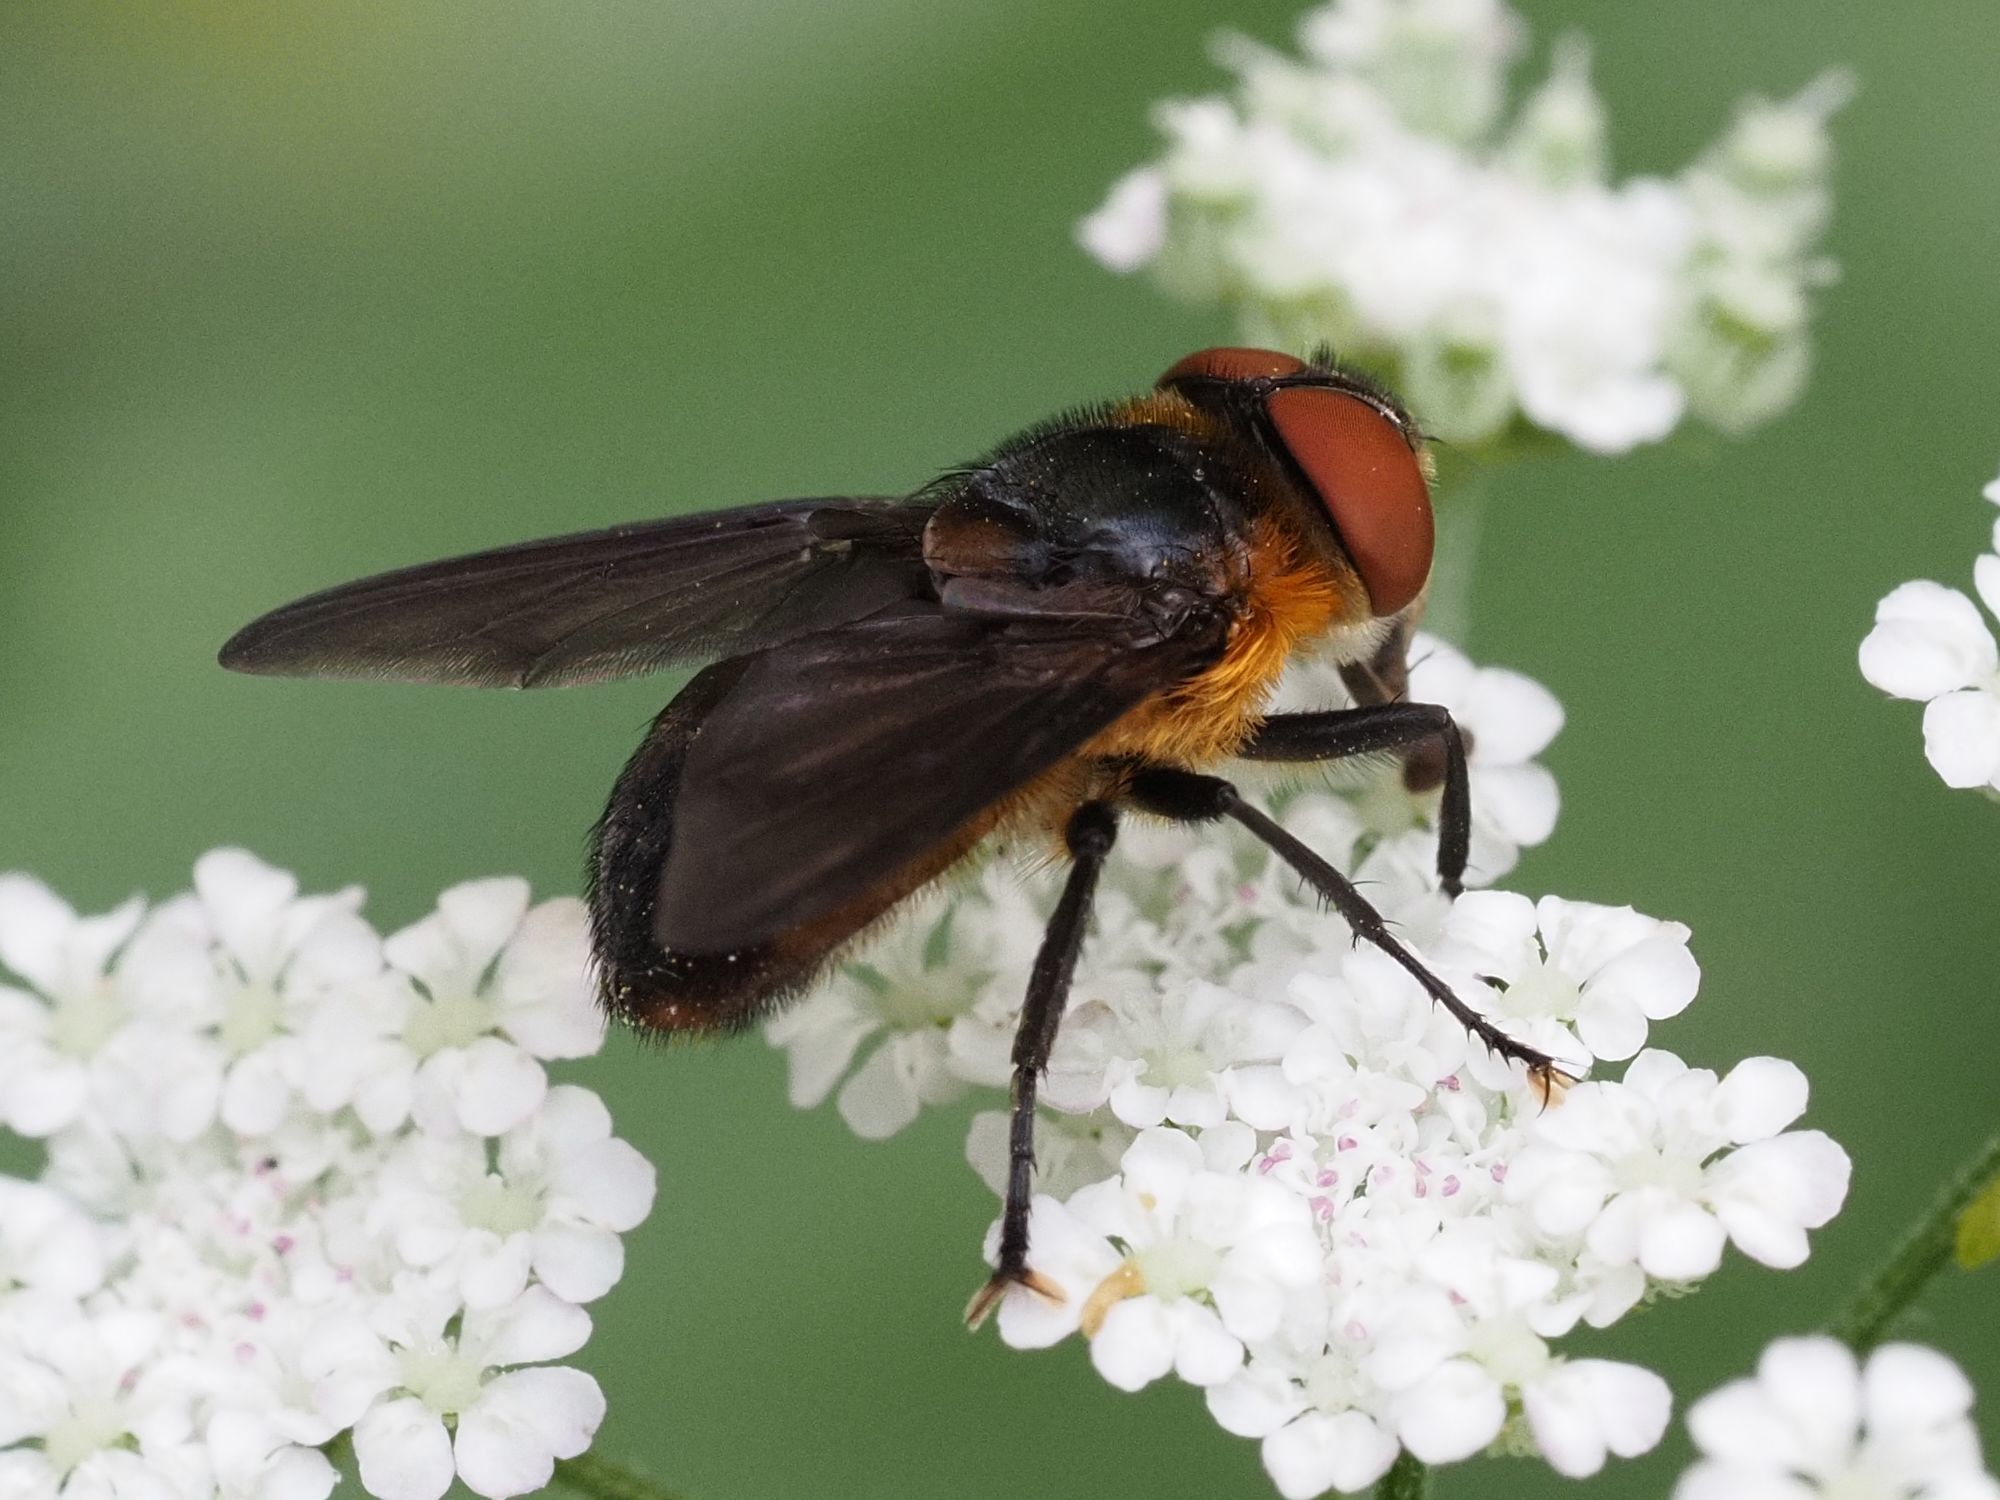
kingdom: Animalia
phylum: Arthropoda
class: Insecta
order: Diptera
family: Tachinidae
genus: Phasia
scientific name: Phasia hemiptera
